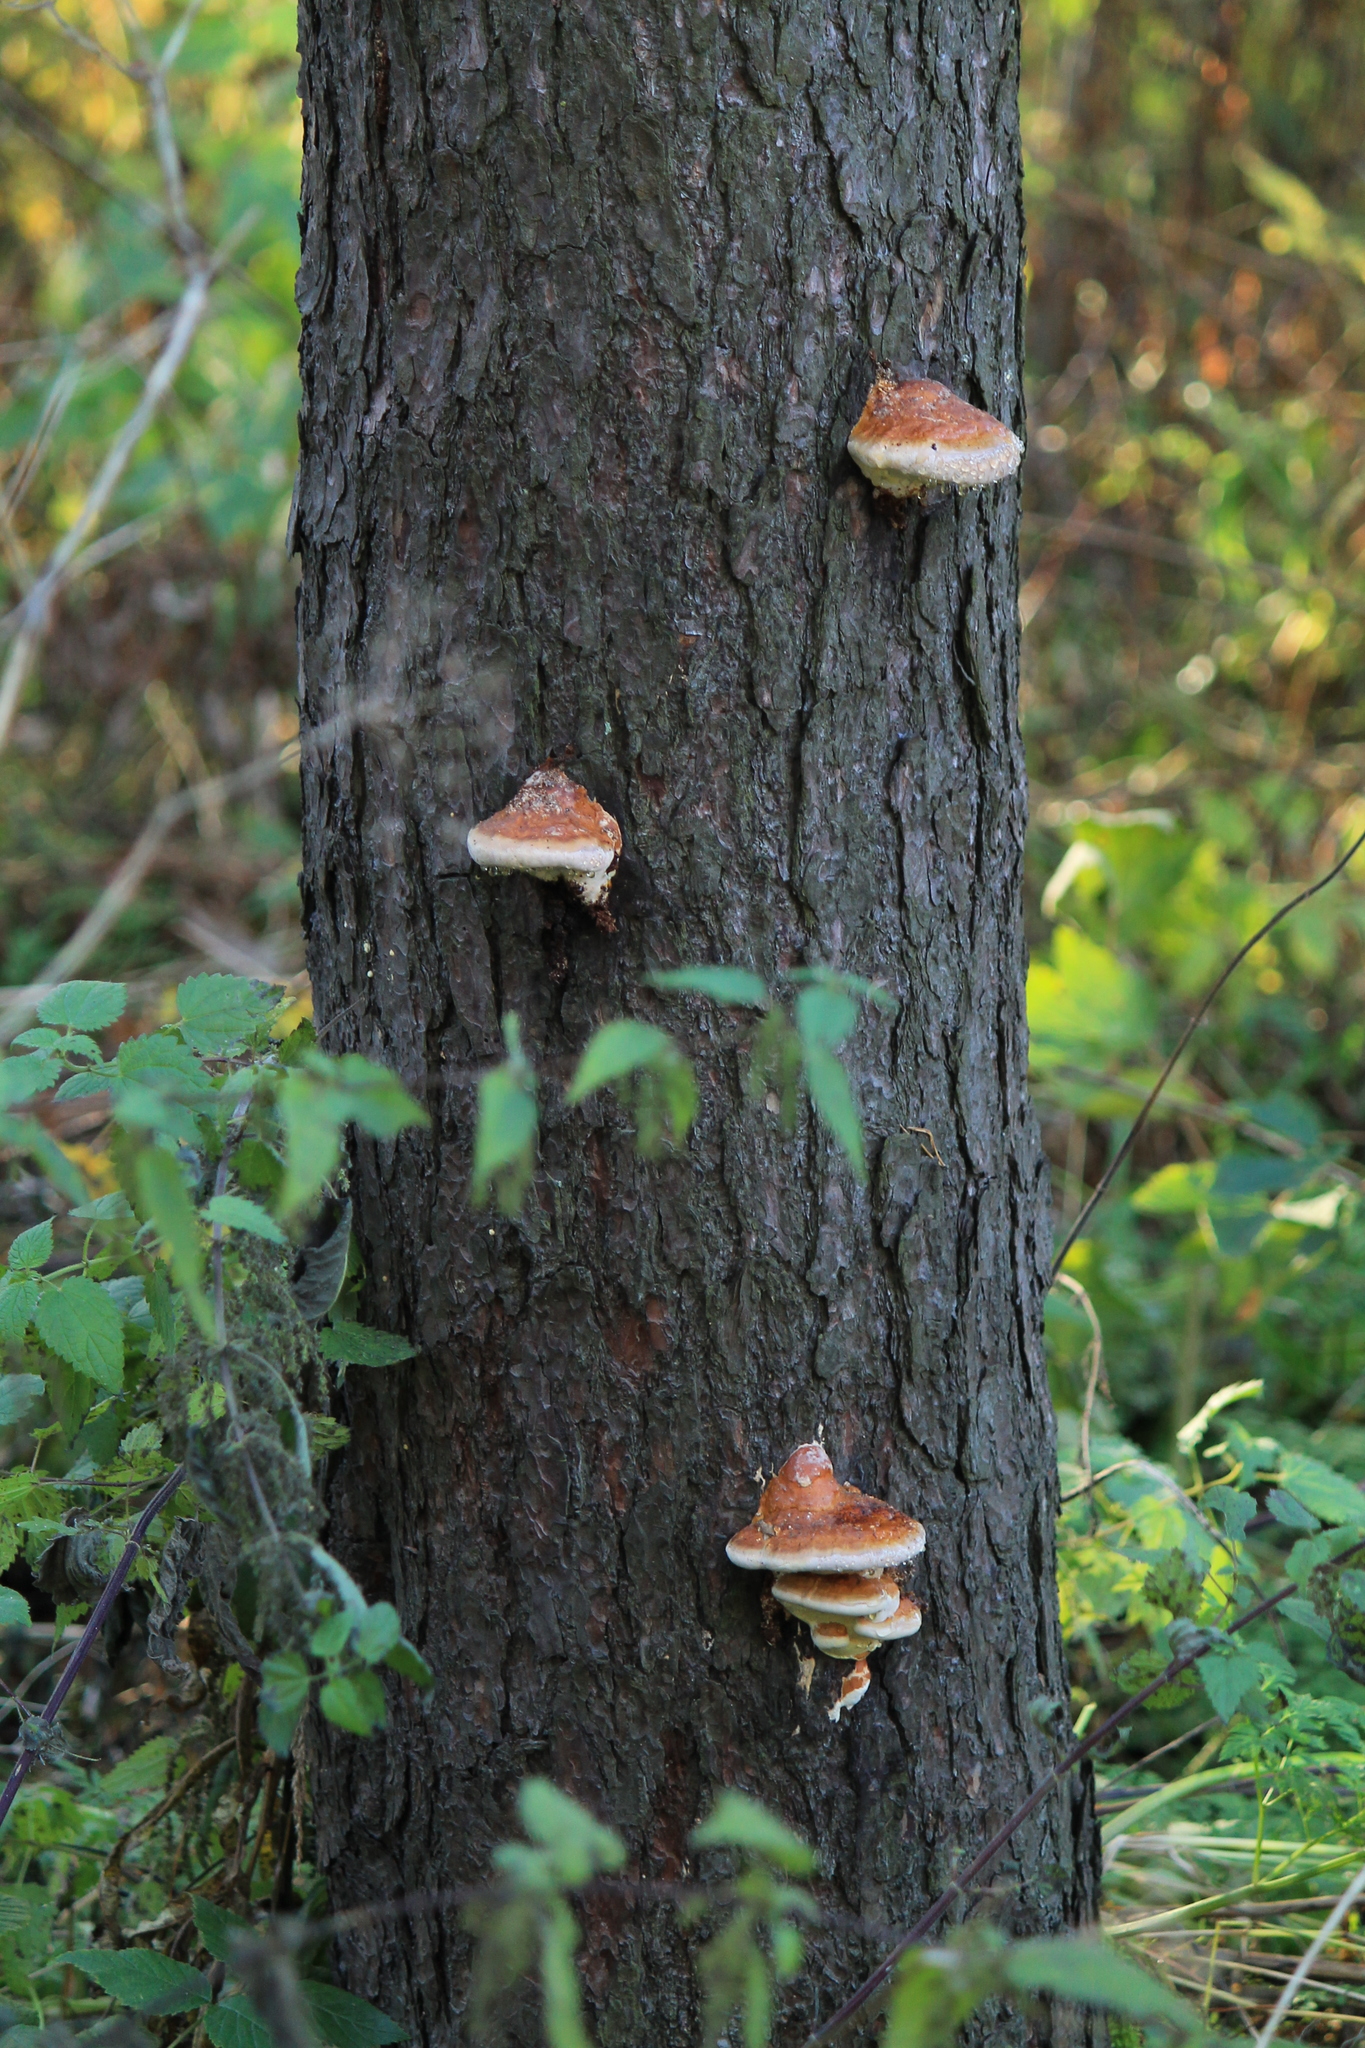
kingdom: Fungi
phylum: Basidiomycota
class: Agaricomycetes
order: Polyporales
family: Fomitopsidaceae
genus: Fomitopsis
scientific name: Fomitopsis pinicola
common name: Red-belted bracket
